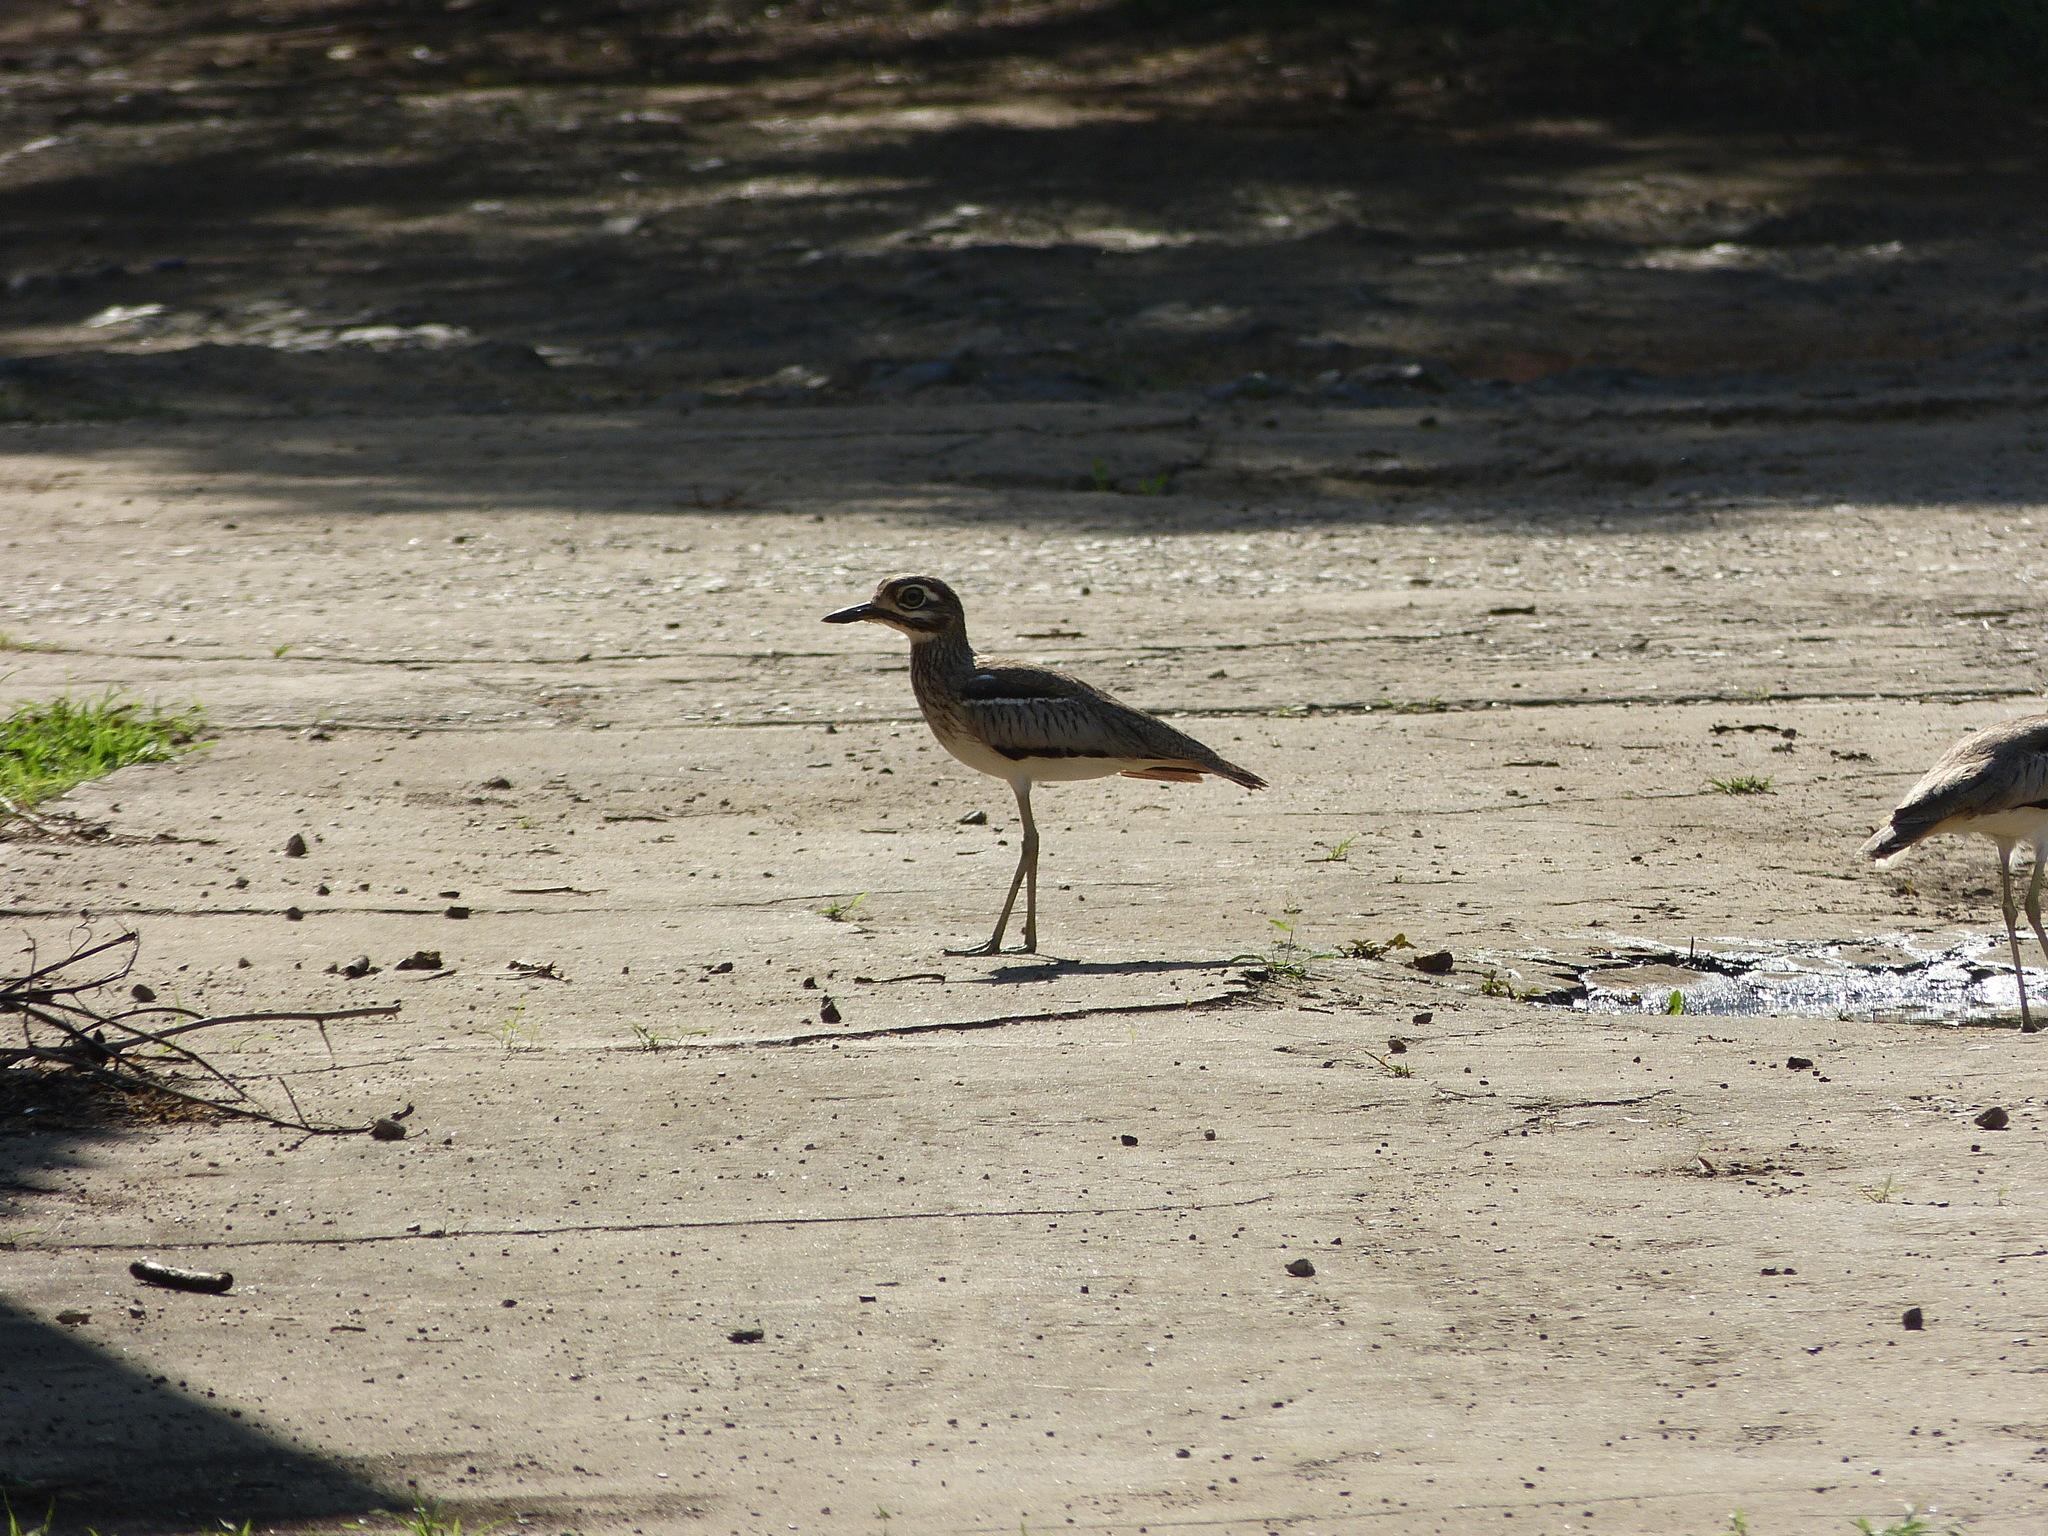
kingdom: Animalia
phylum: Chordata
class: Aves
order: Charadriiformes
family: Burhinidae
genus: Burhinus
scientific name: Burhinus vermiculatus
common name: Water thick-knee
